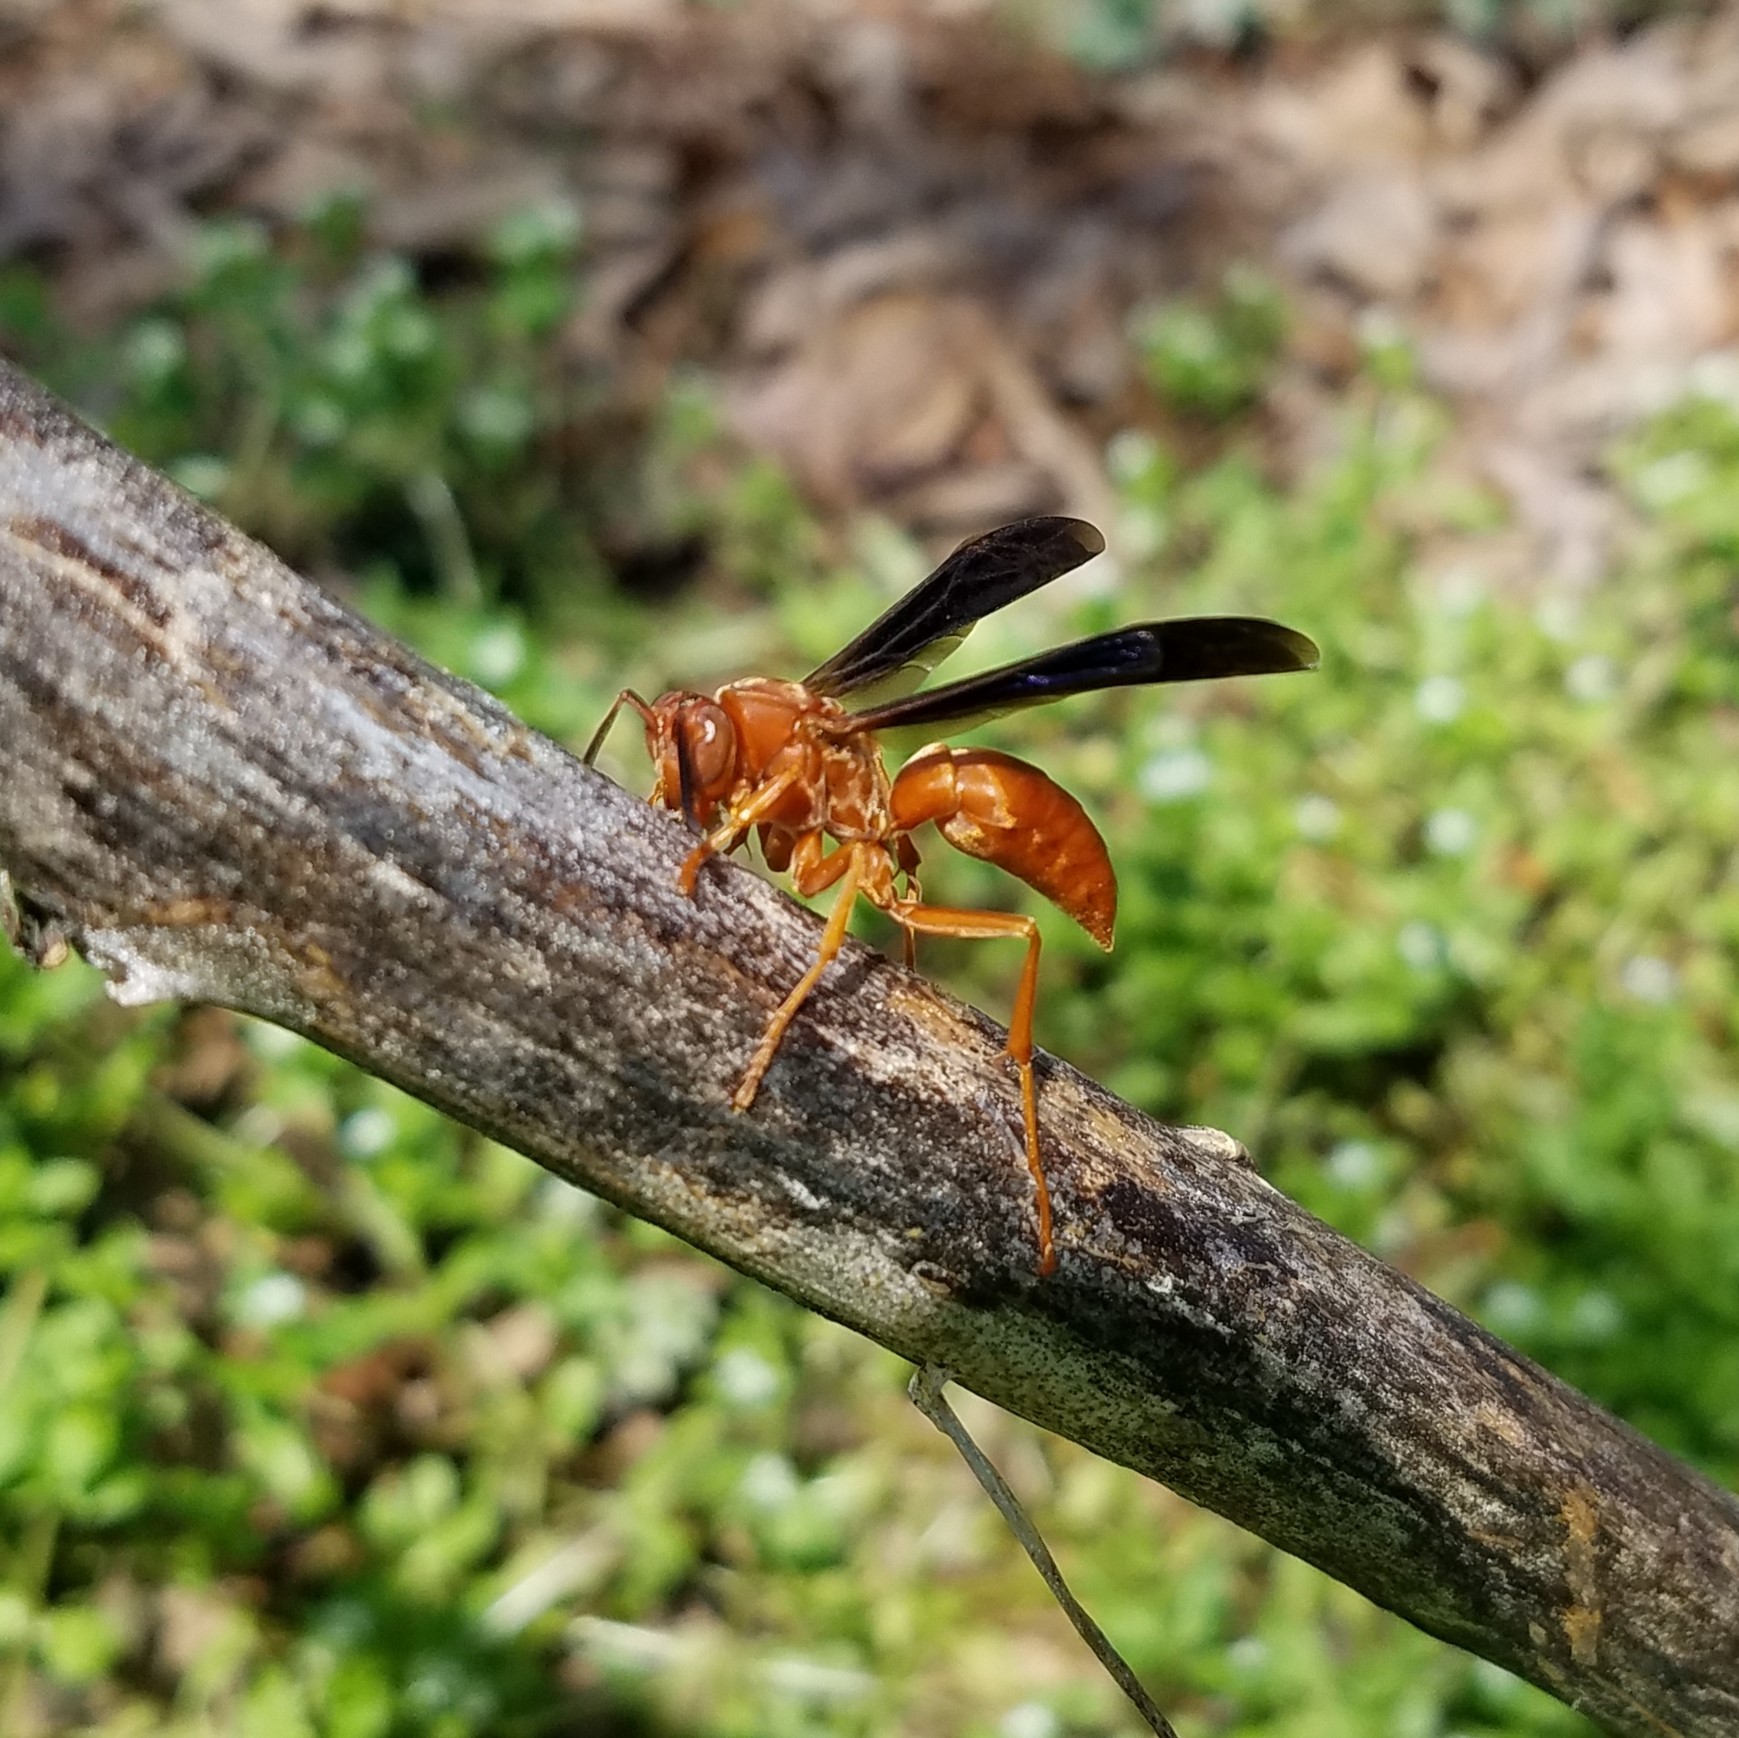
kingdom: Animalia
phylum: Arthropoda
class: Insecta
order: Hymenoptera
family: Vespidae
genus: Fuscopolistes
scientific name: Fuscopolistes
